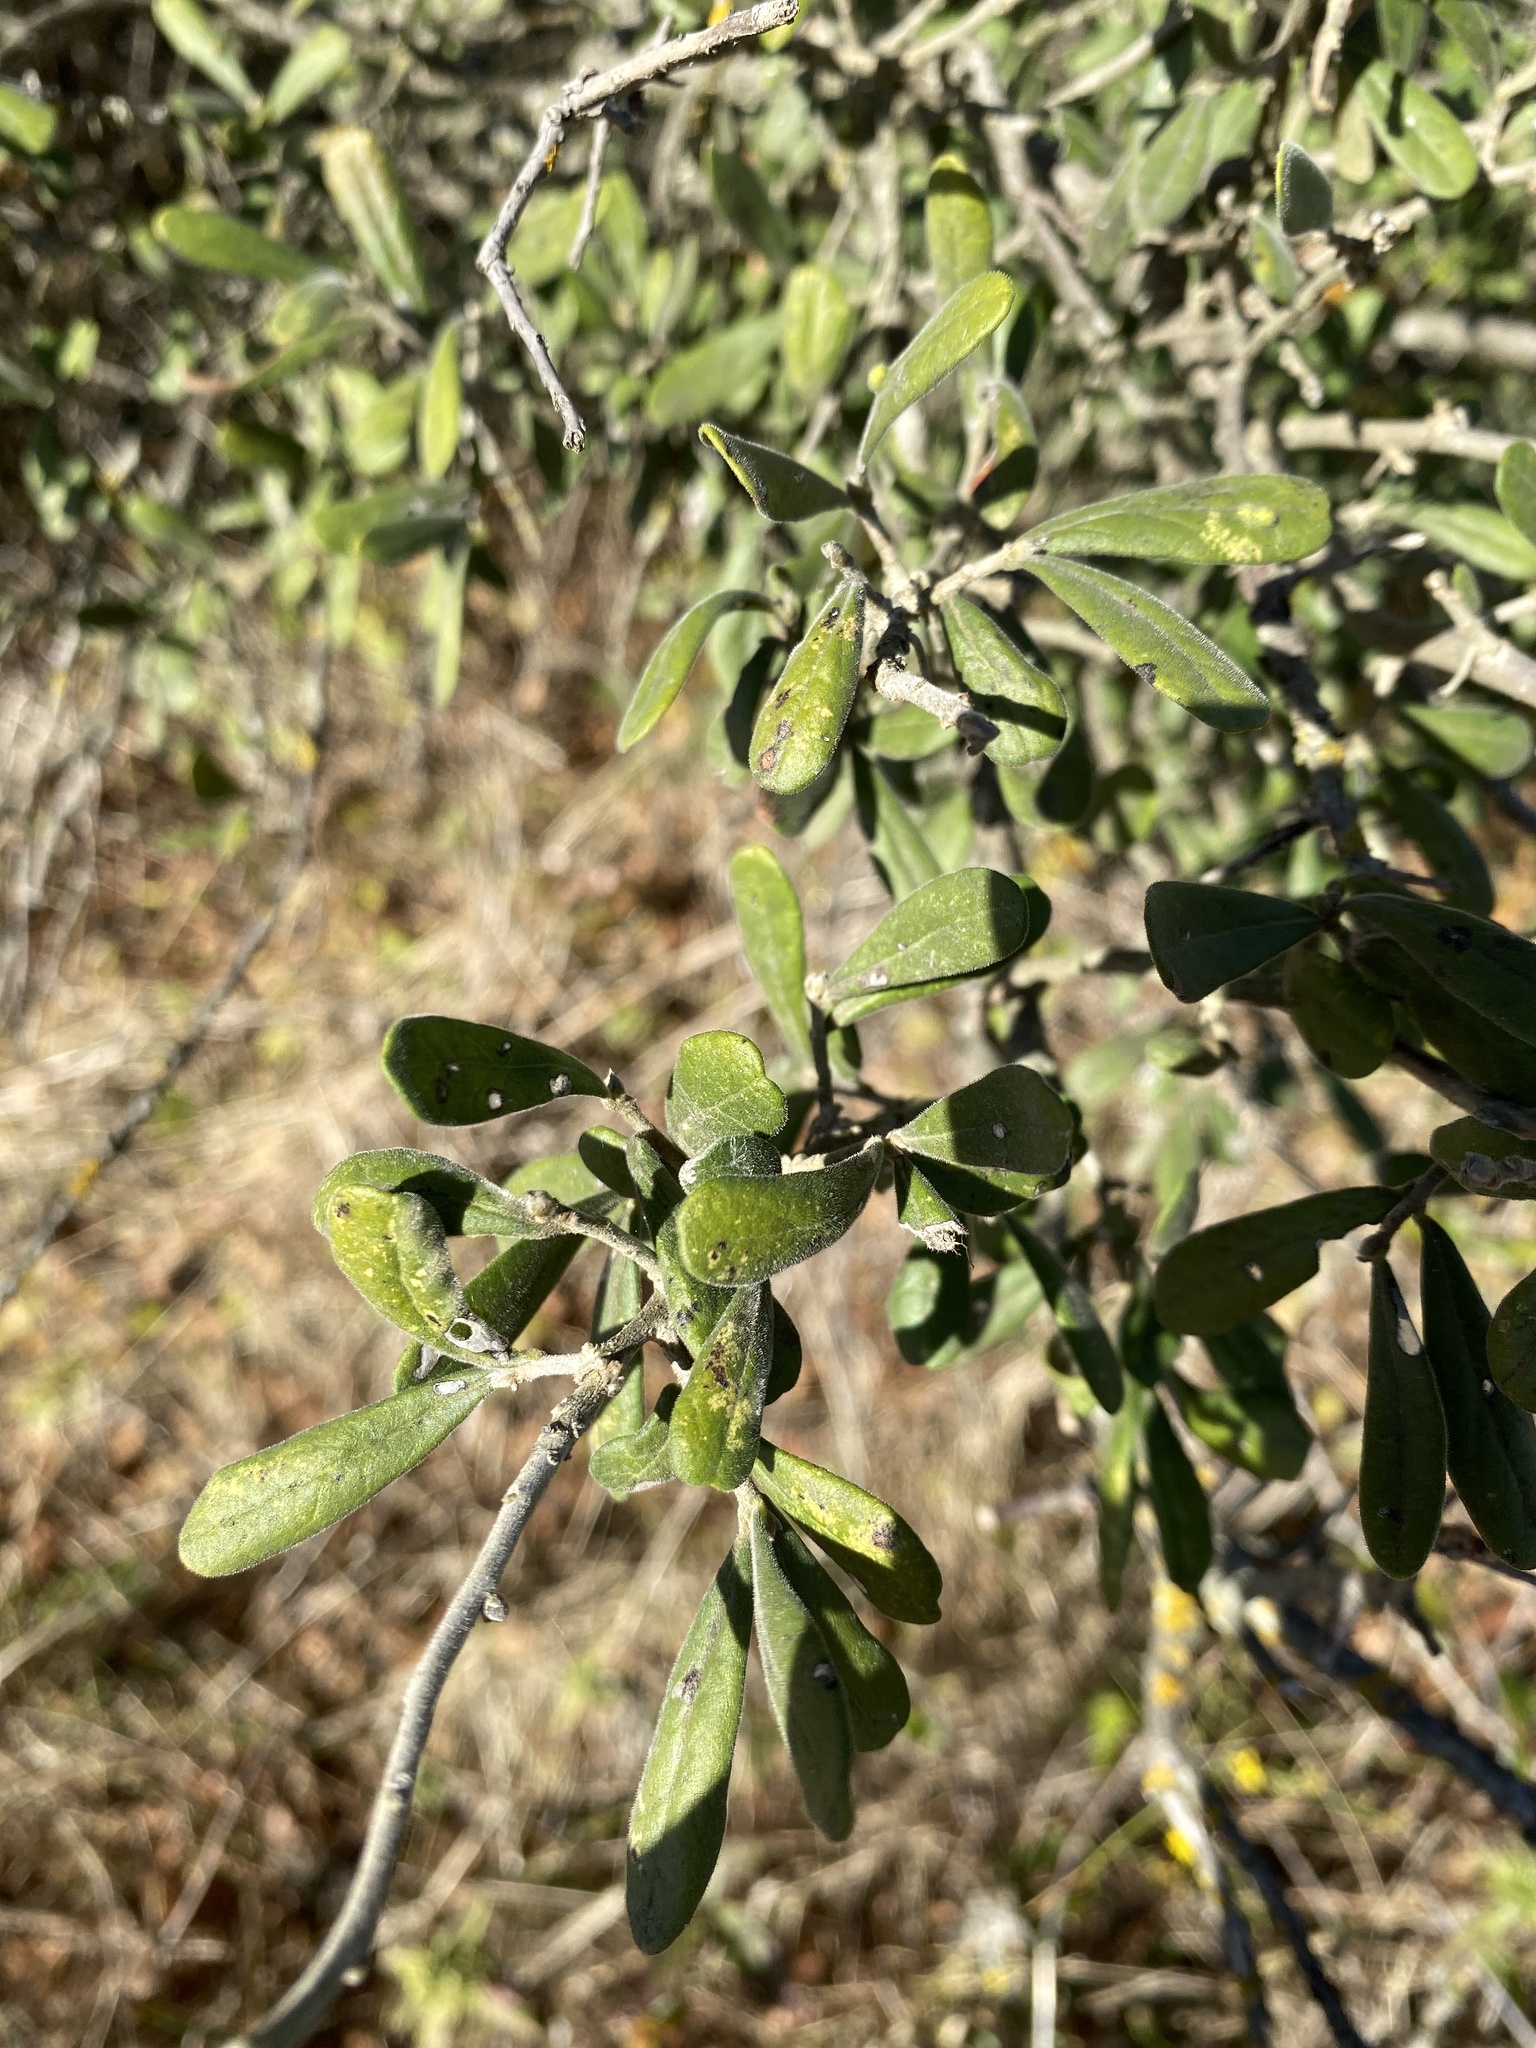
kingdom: Plantae
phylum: Tracheophyta
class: Magnoliopsida
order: Ericales
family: Ebenaceae
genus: Diospyros
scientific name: Diospyros texana
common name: Texas persimmon
